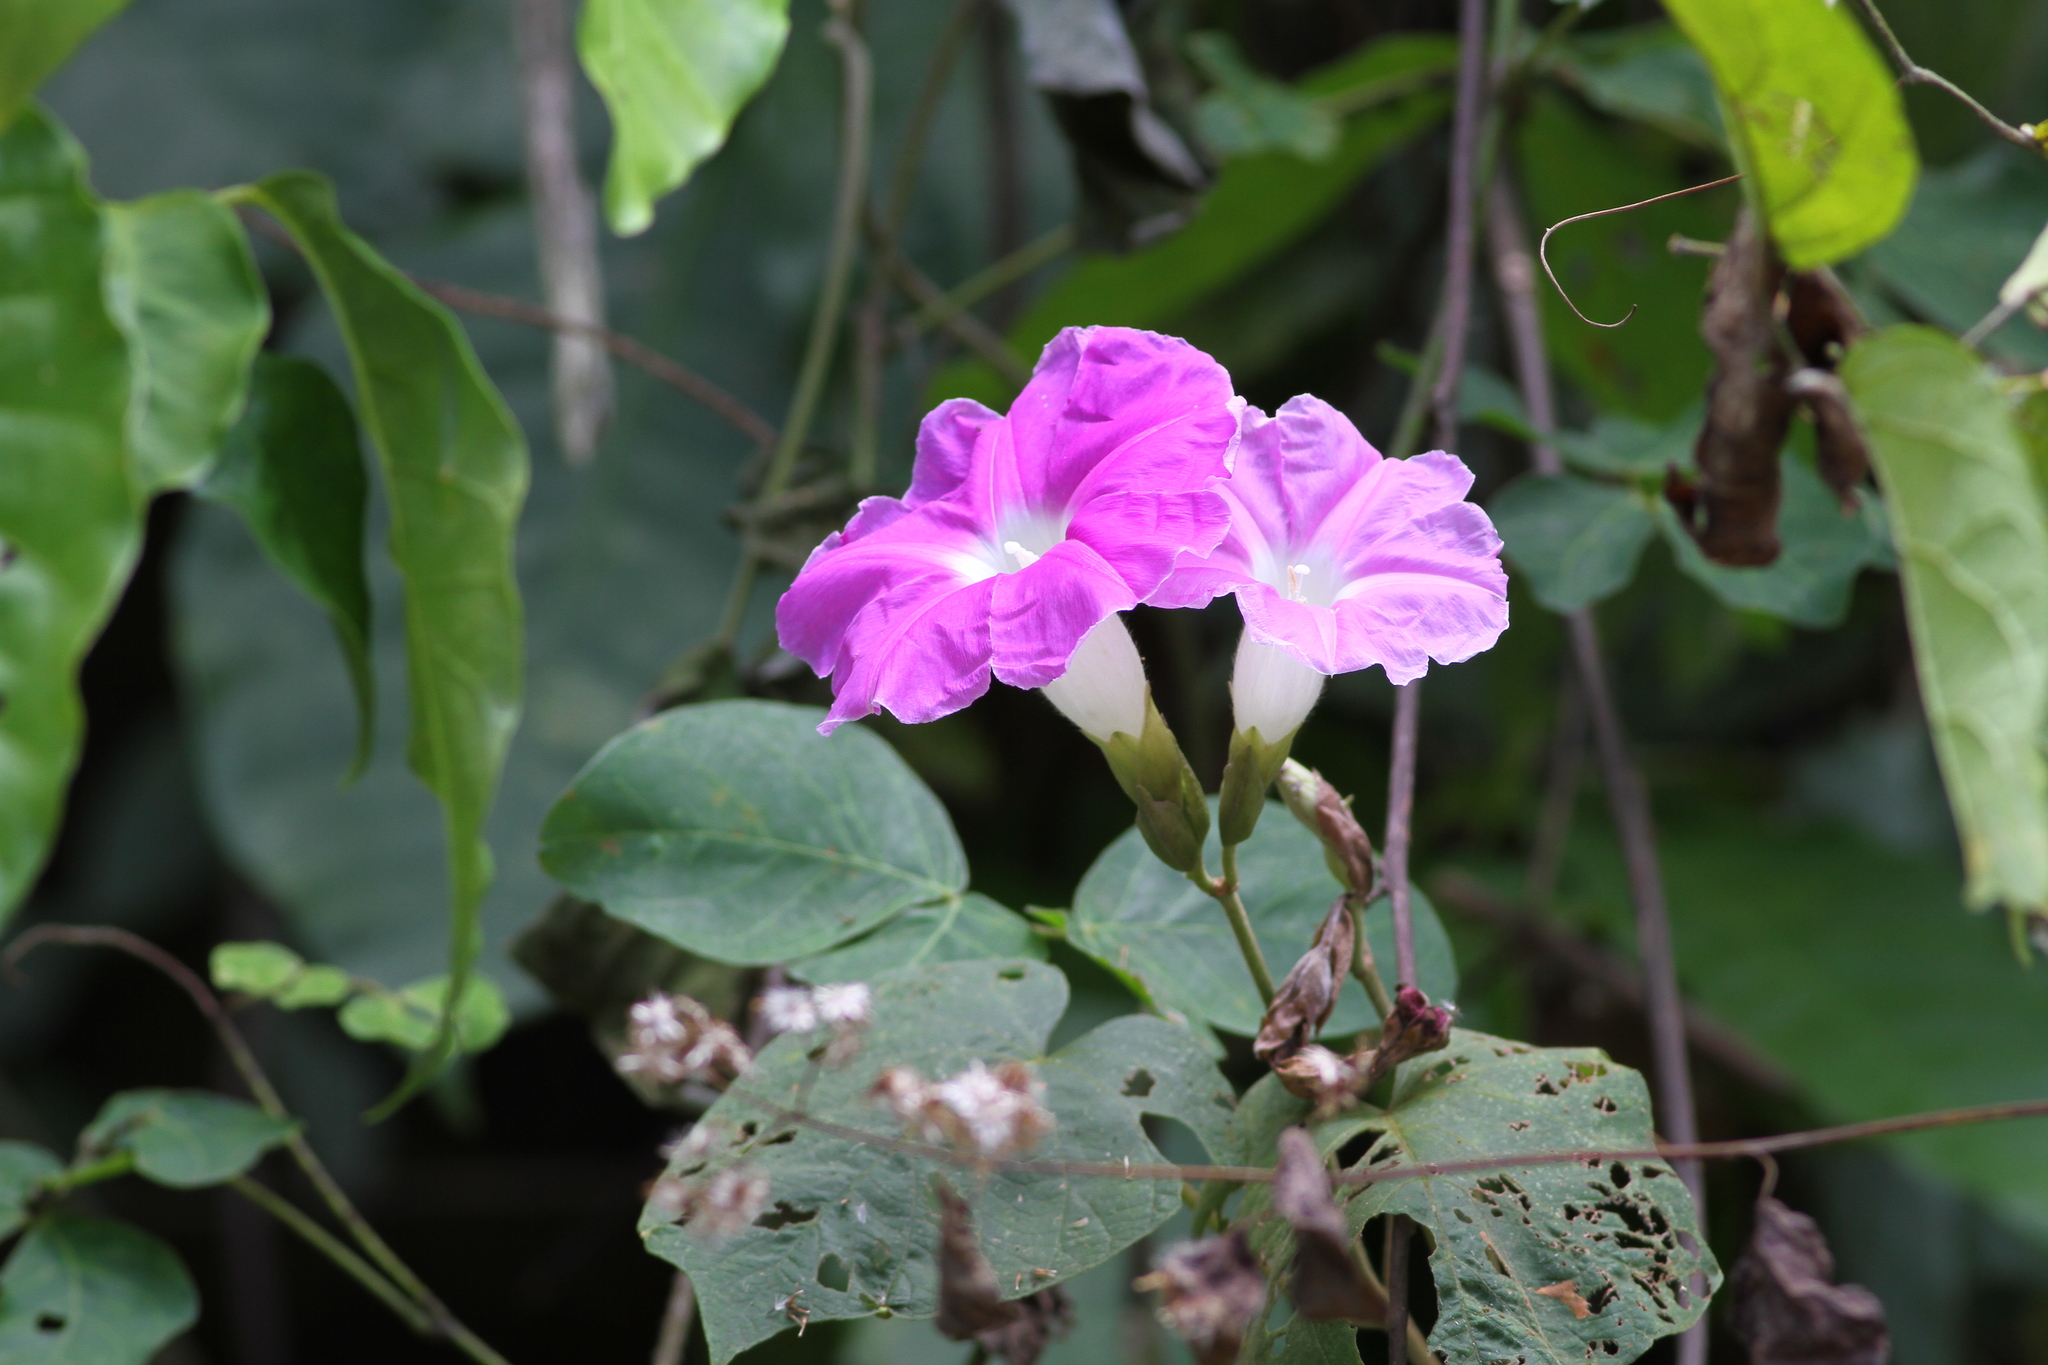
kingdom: Plantae
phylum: Tracheophyta
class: Magnoliopsida
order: Solanales
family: Convolvulaceae
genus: Ipomoea
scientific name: Ipomoea mairetii
